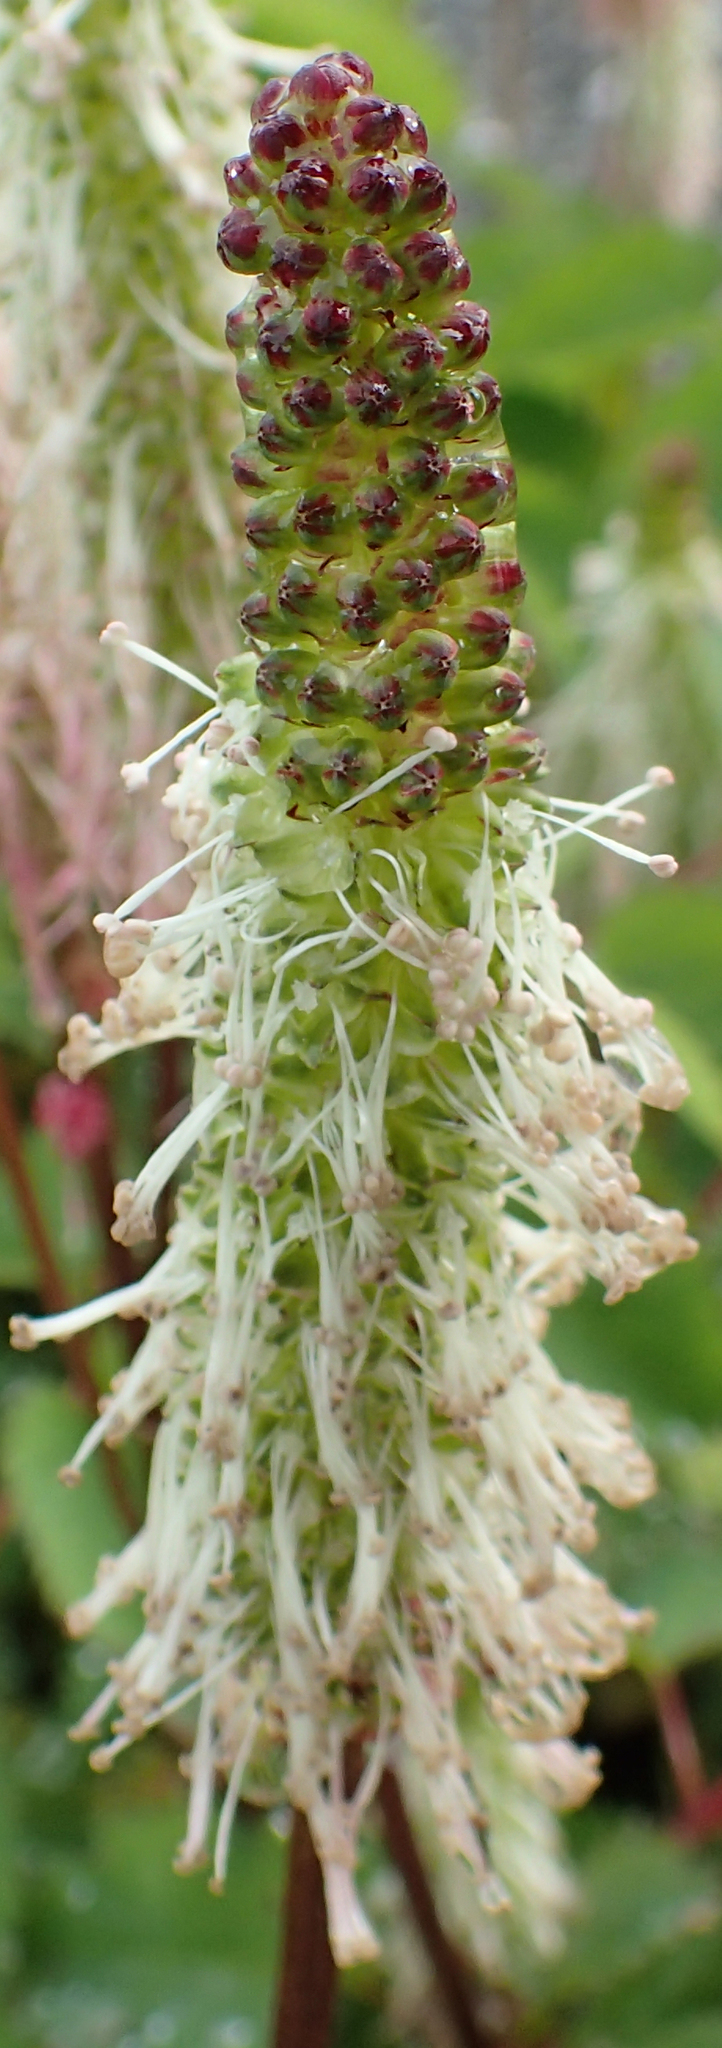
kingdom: Plantae
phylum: Tracheophyta
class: Magnoliopsida
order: Rosales
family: Rosaceae
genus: Sanguisorba
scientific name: Sanguisorba stipulata
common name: Sitka burnet
